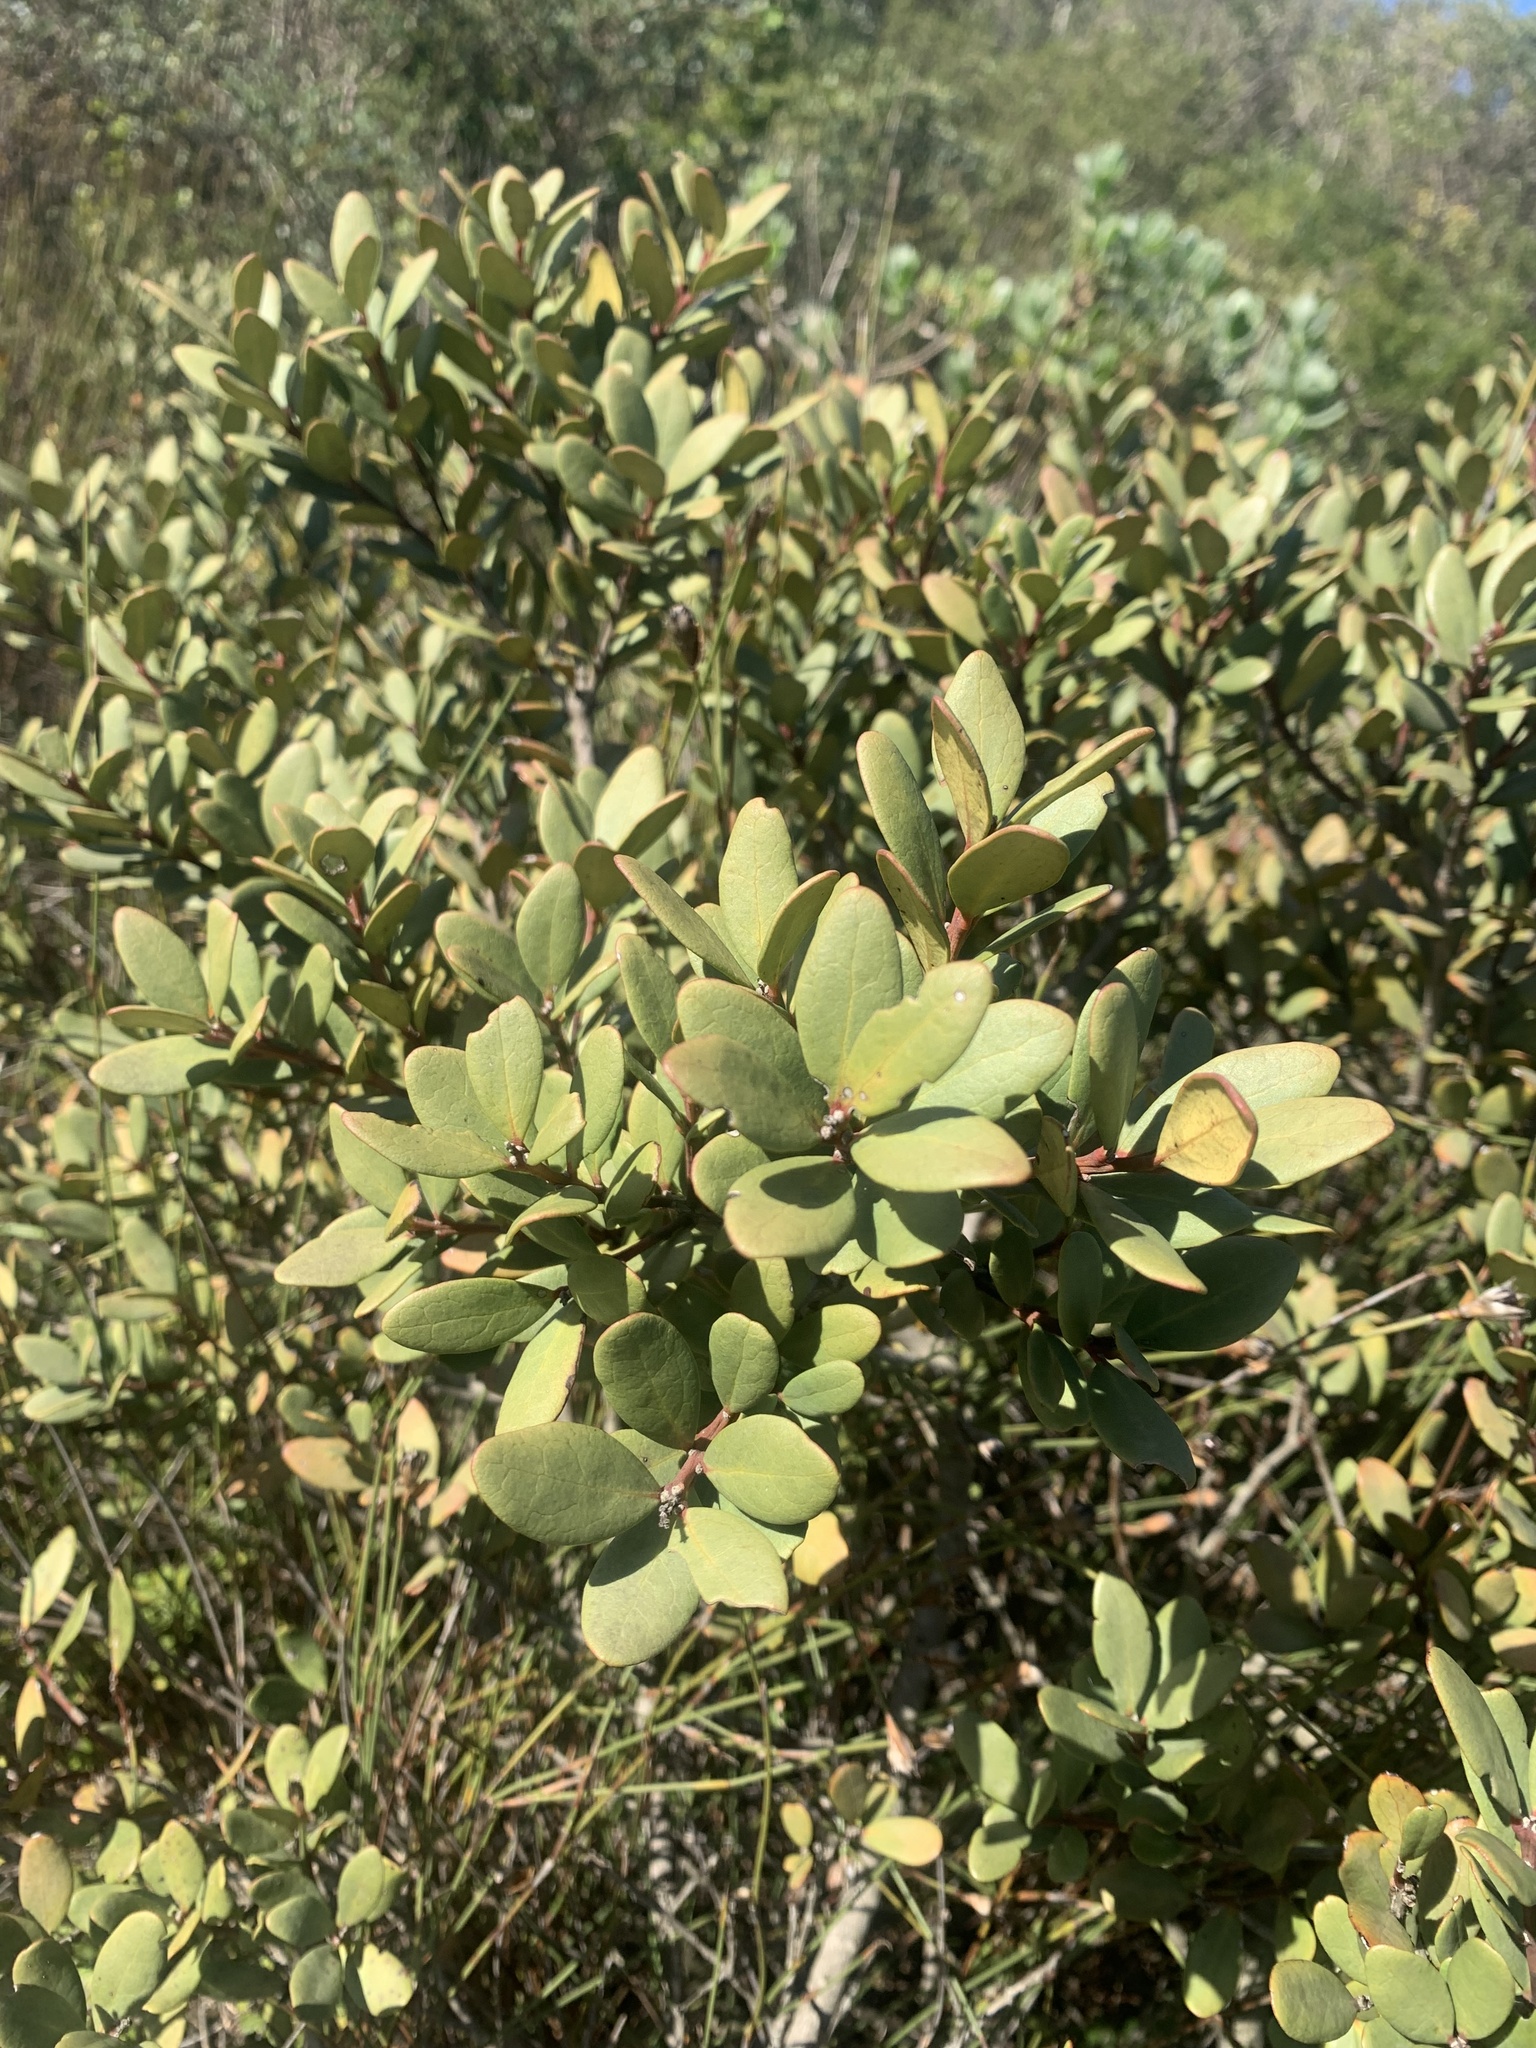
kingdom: Plantae
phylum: Tracheophyta
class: Magnoliopsida
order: Ericales
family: Ebenaceae
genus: Euclea
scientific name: Euclea racemosa
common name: Dune guarri
